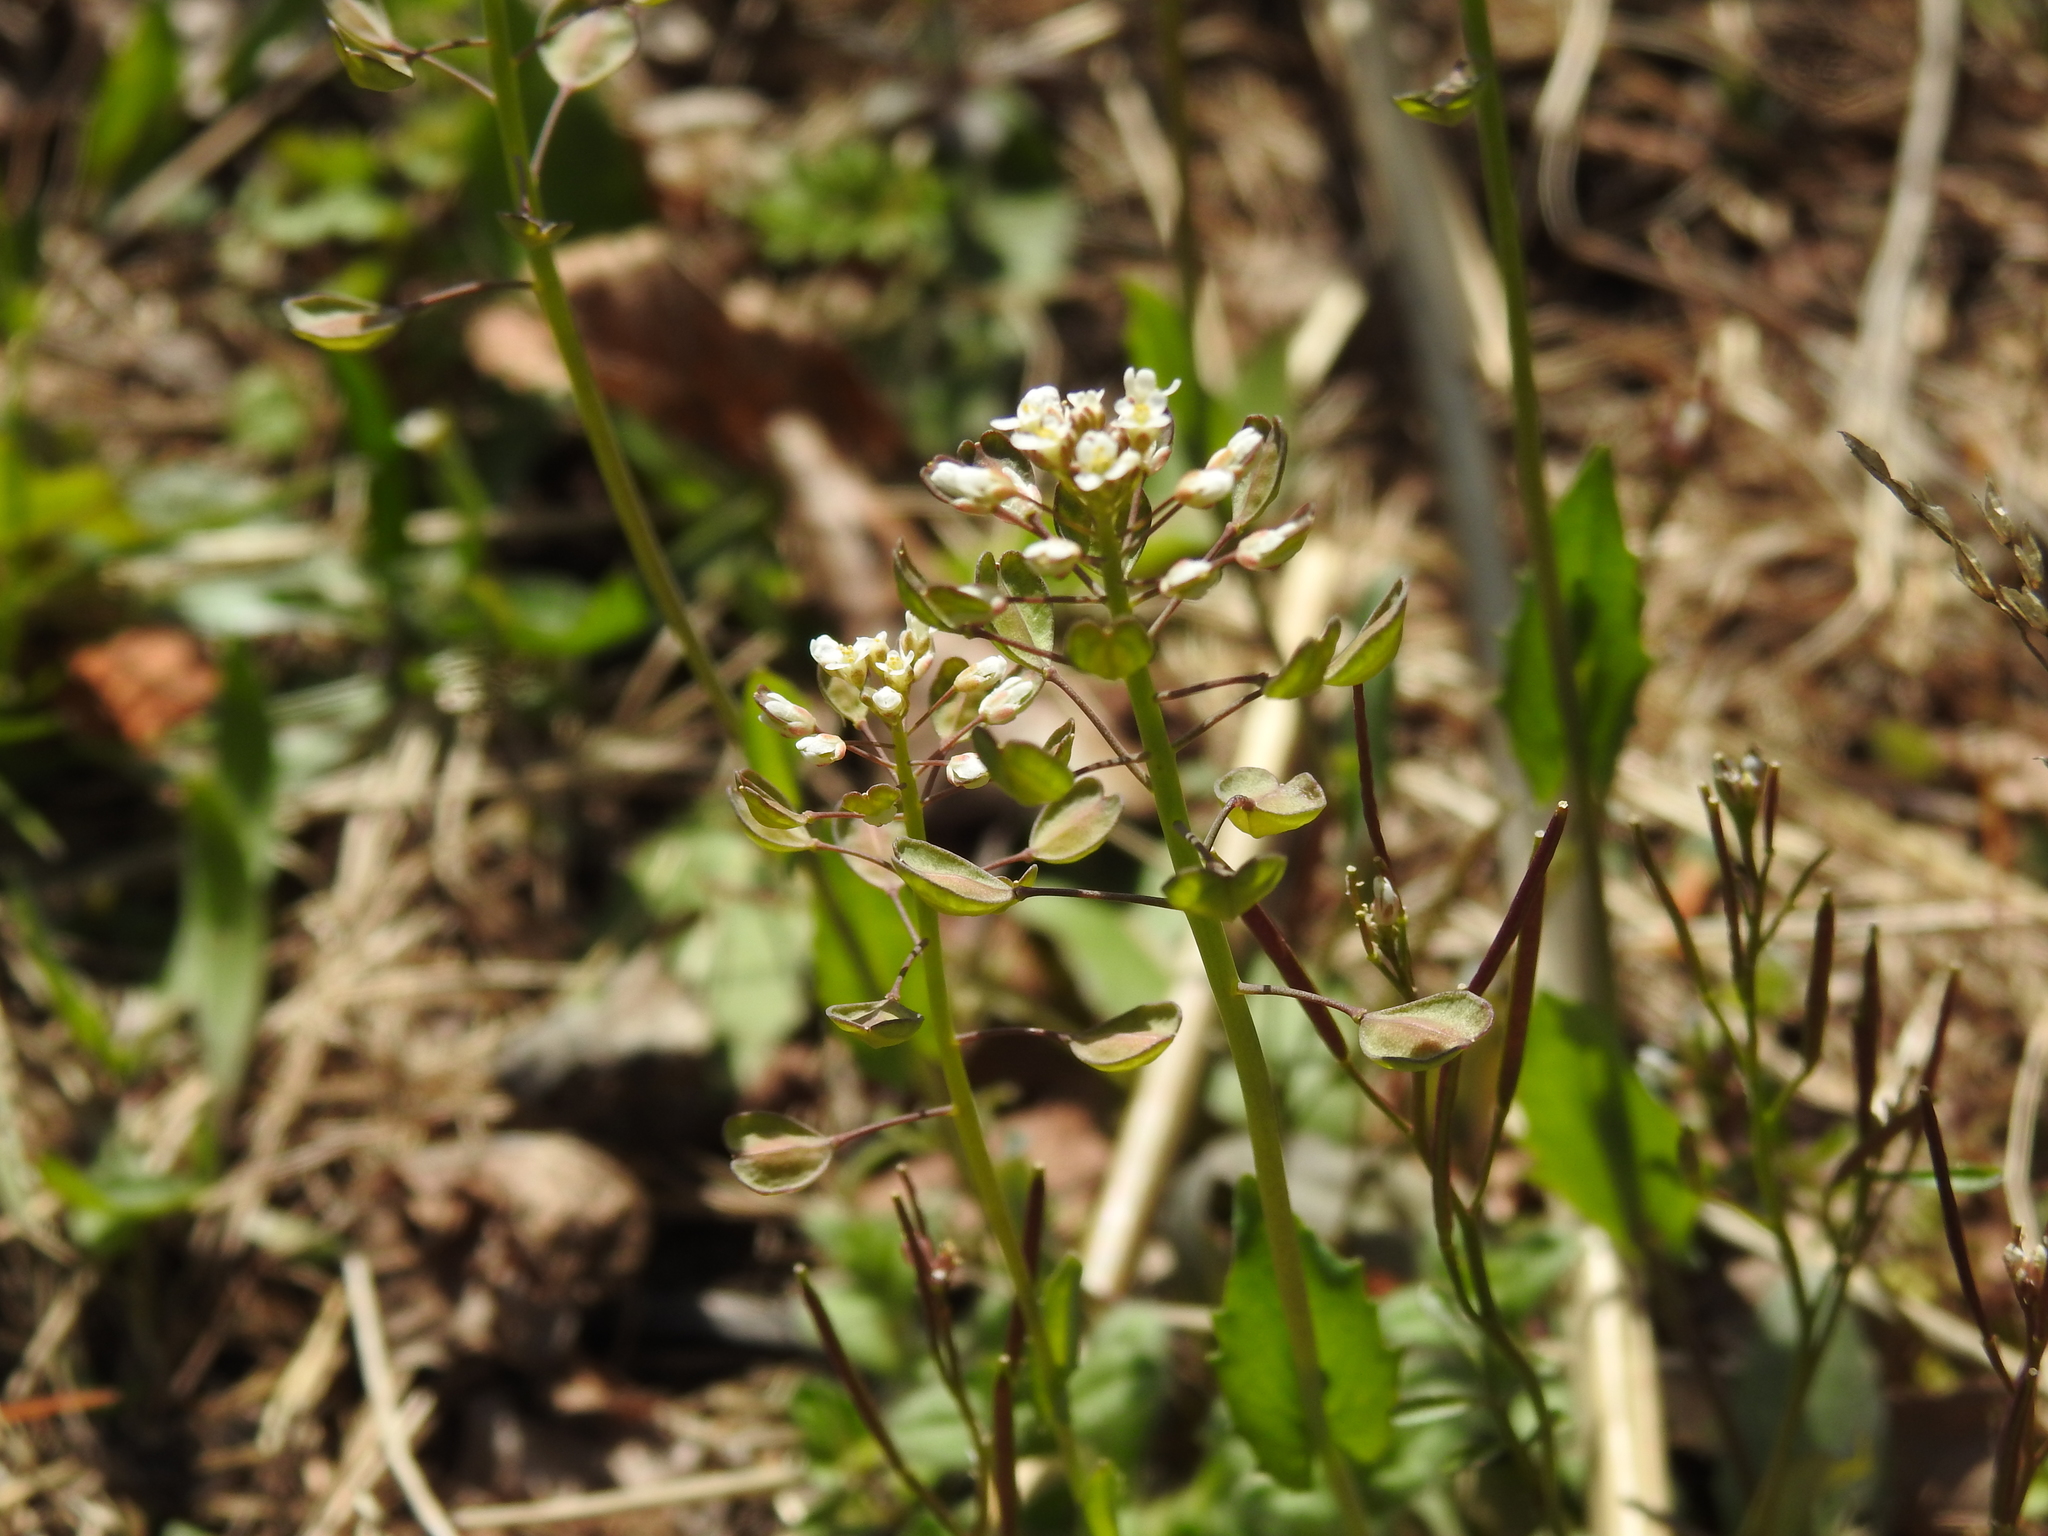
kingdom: Plantae
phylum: Tracheophyta
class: Magnoliopsida
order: Brassicales
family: Brassicaceae
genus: Noccaea
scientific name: Noccaea perfoliata
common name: Perfoliate pennycress
